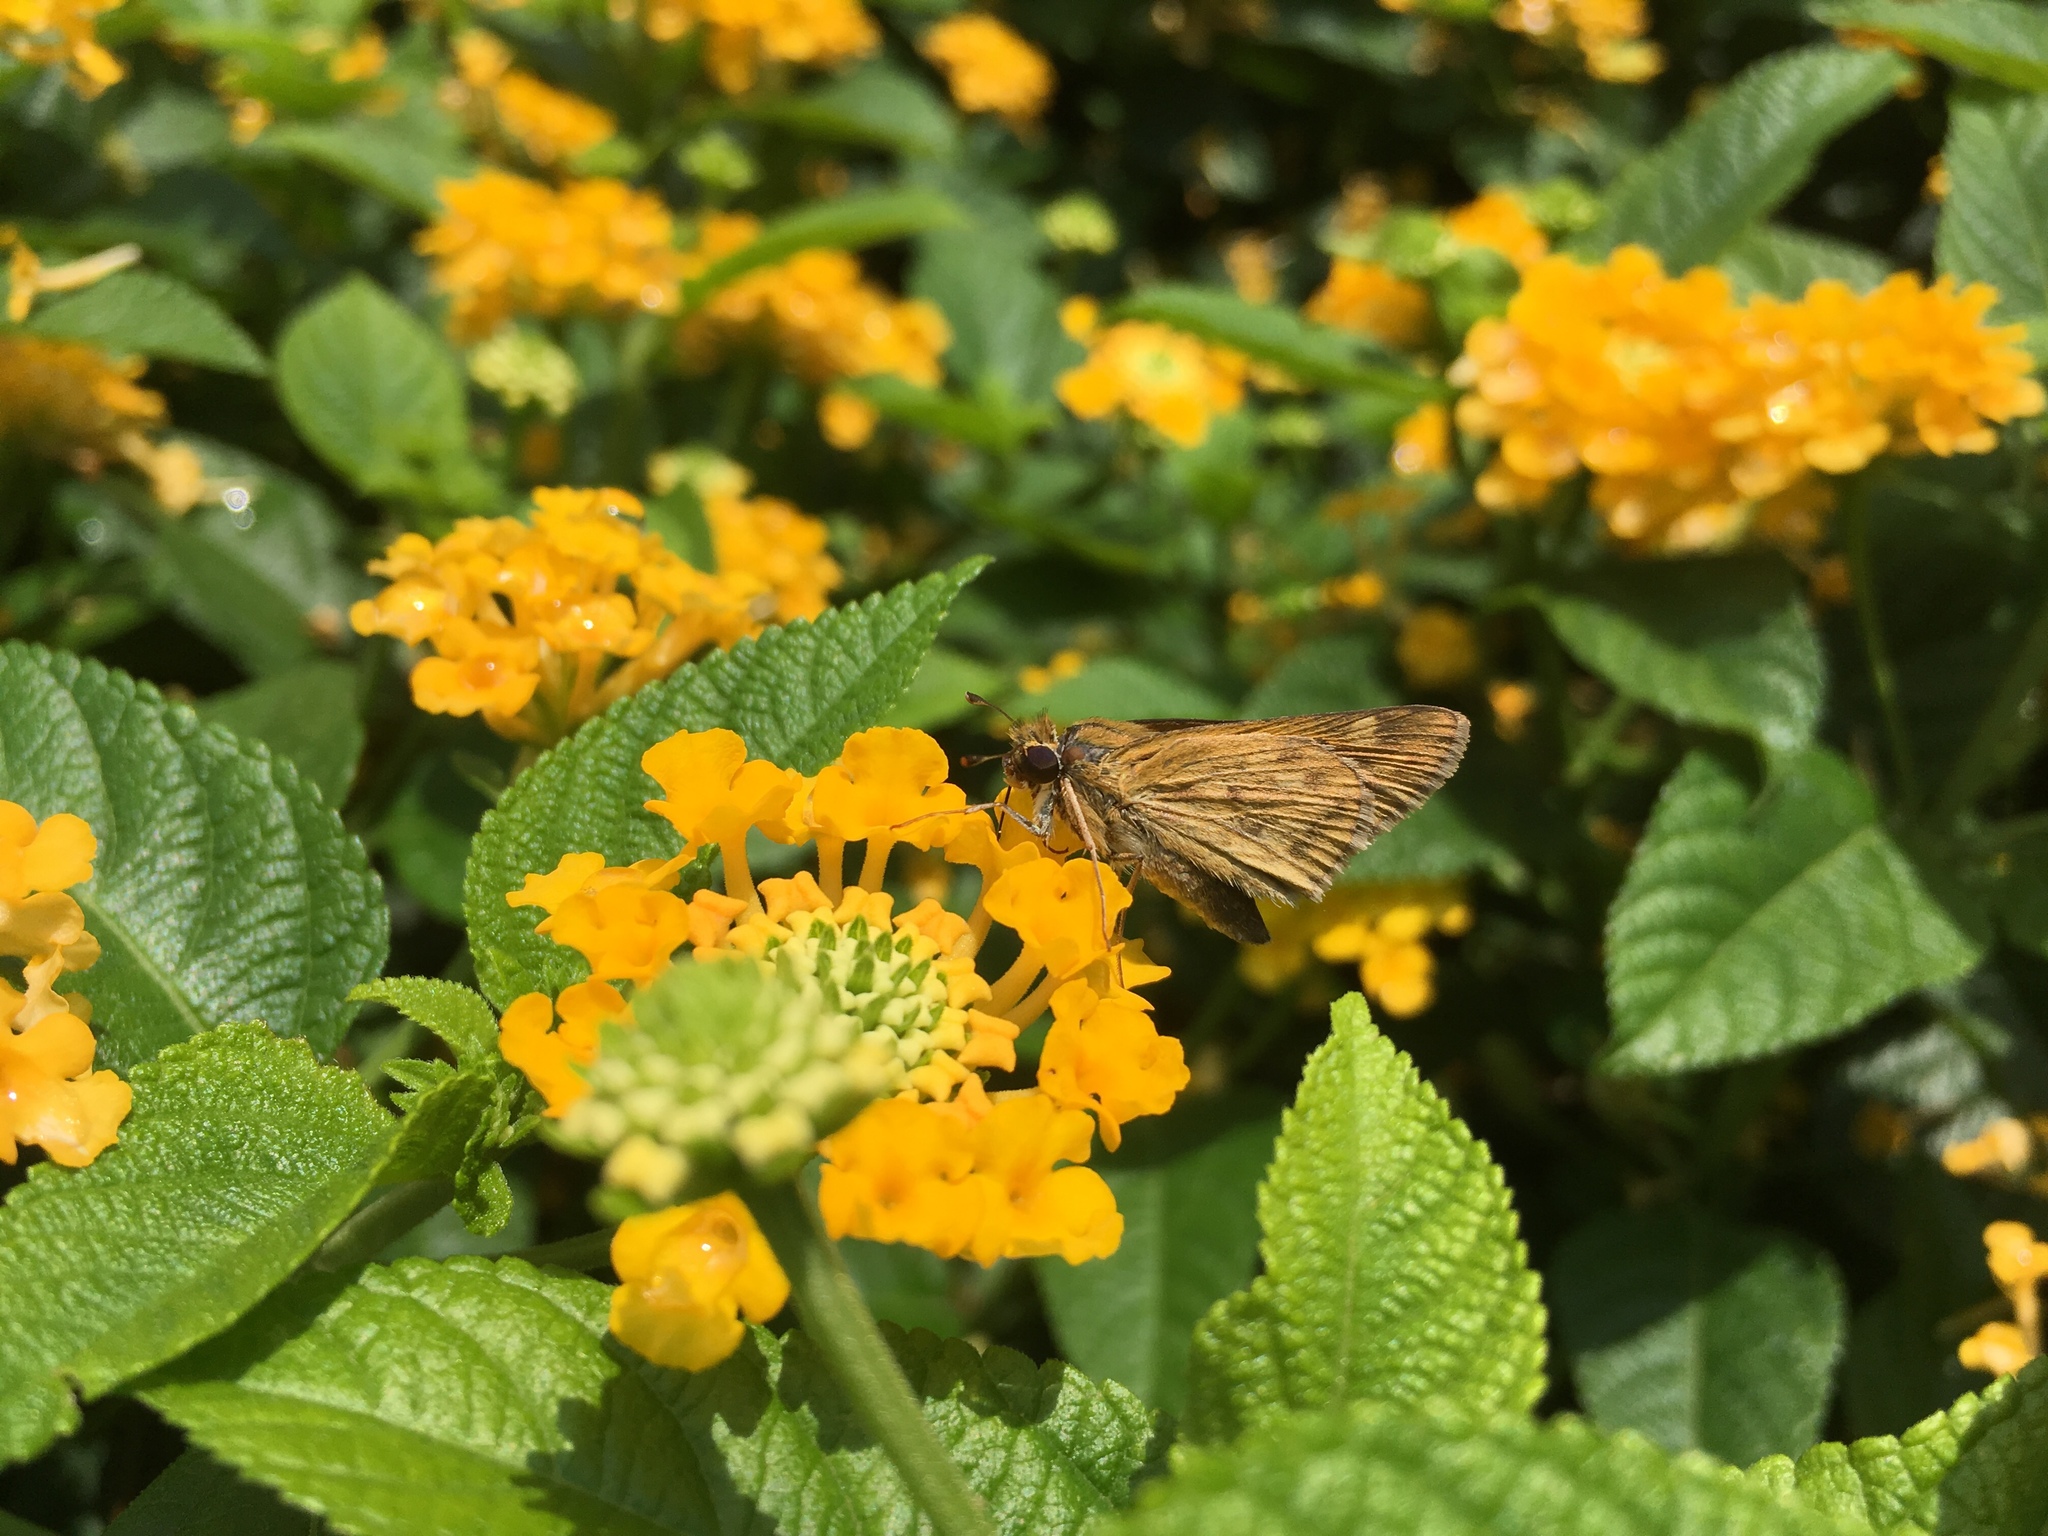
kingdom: Animalia
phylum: Arthropoda
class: Insecta
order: Lepidoptera
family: Hesperiidae
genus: Hylephila
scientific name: Hylephila phyleus
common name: Fiery skipper
